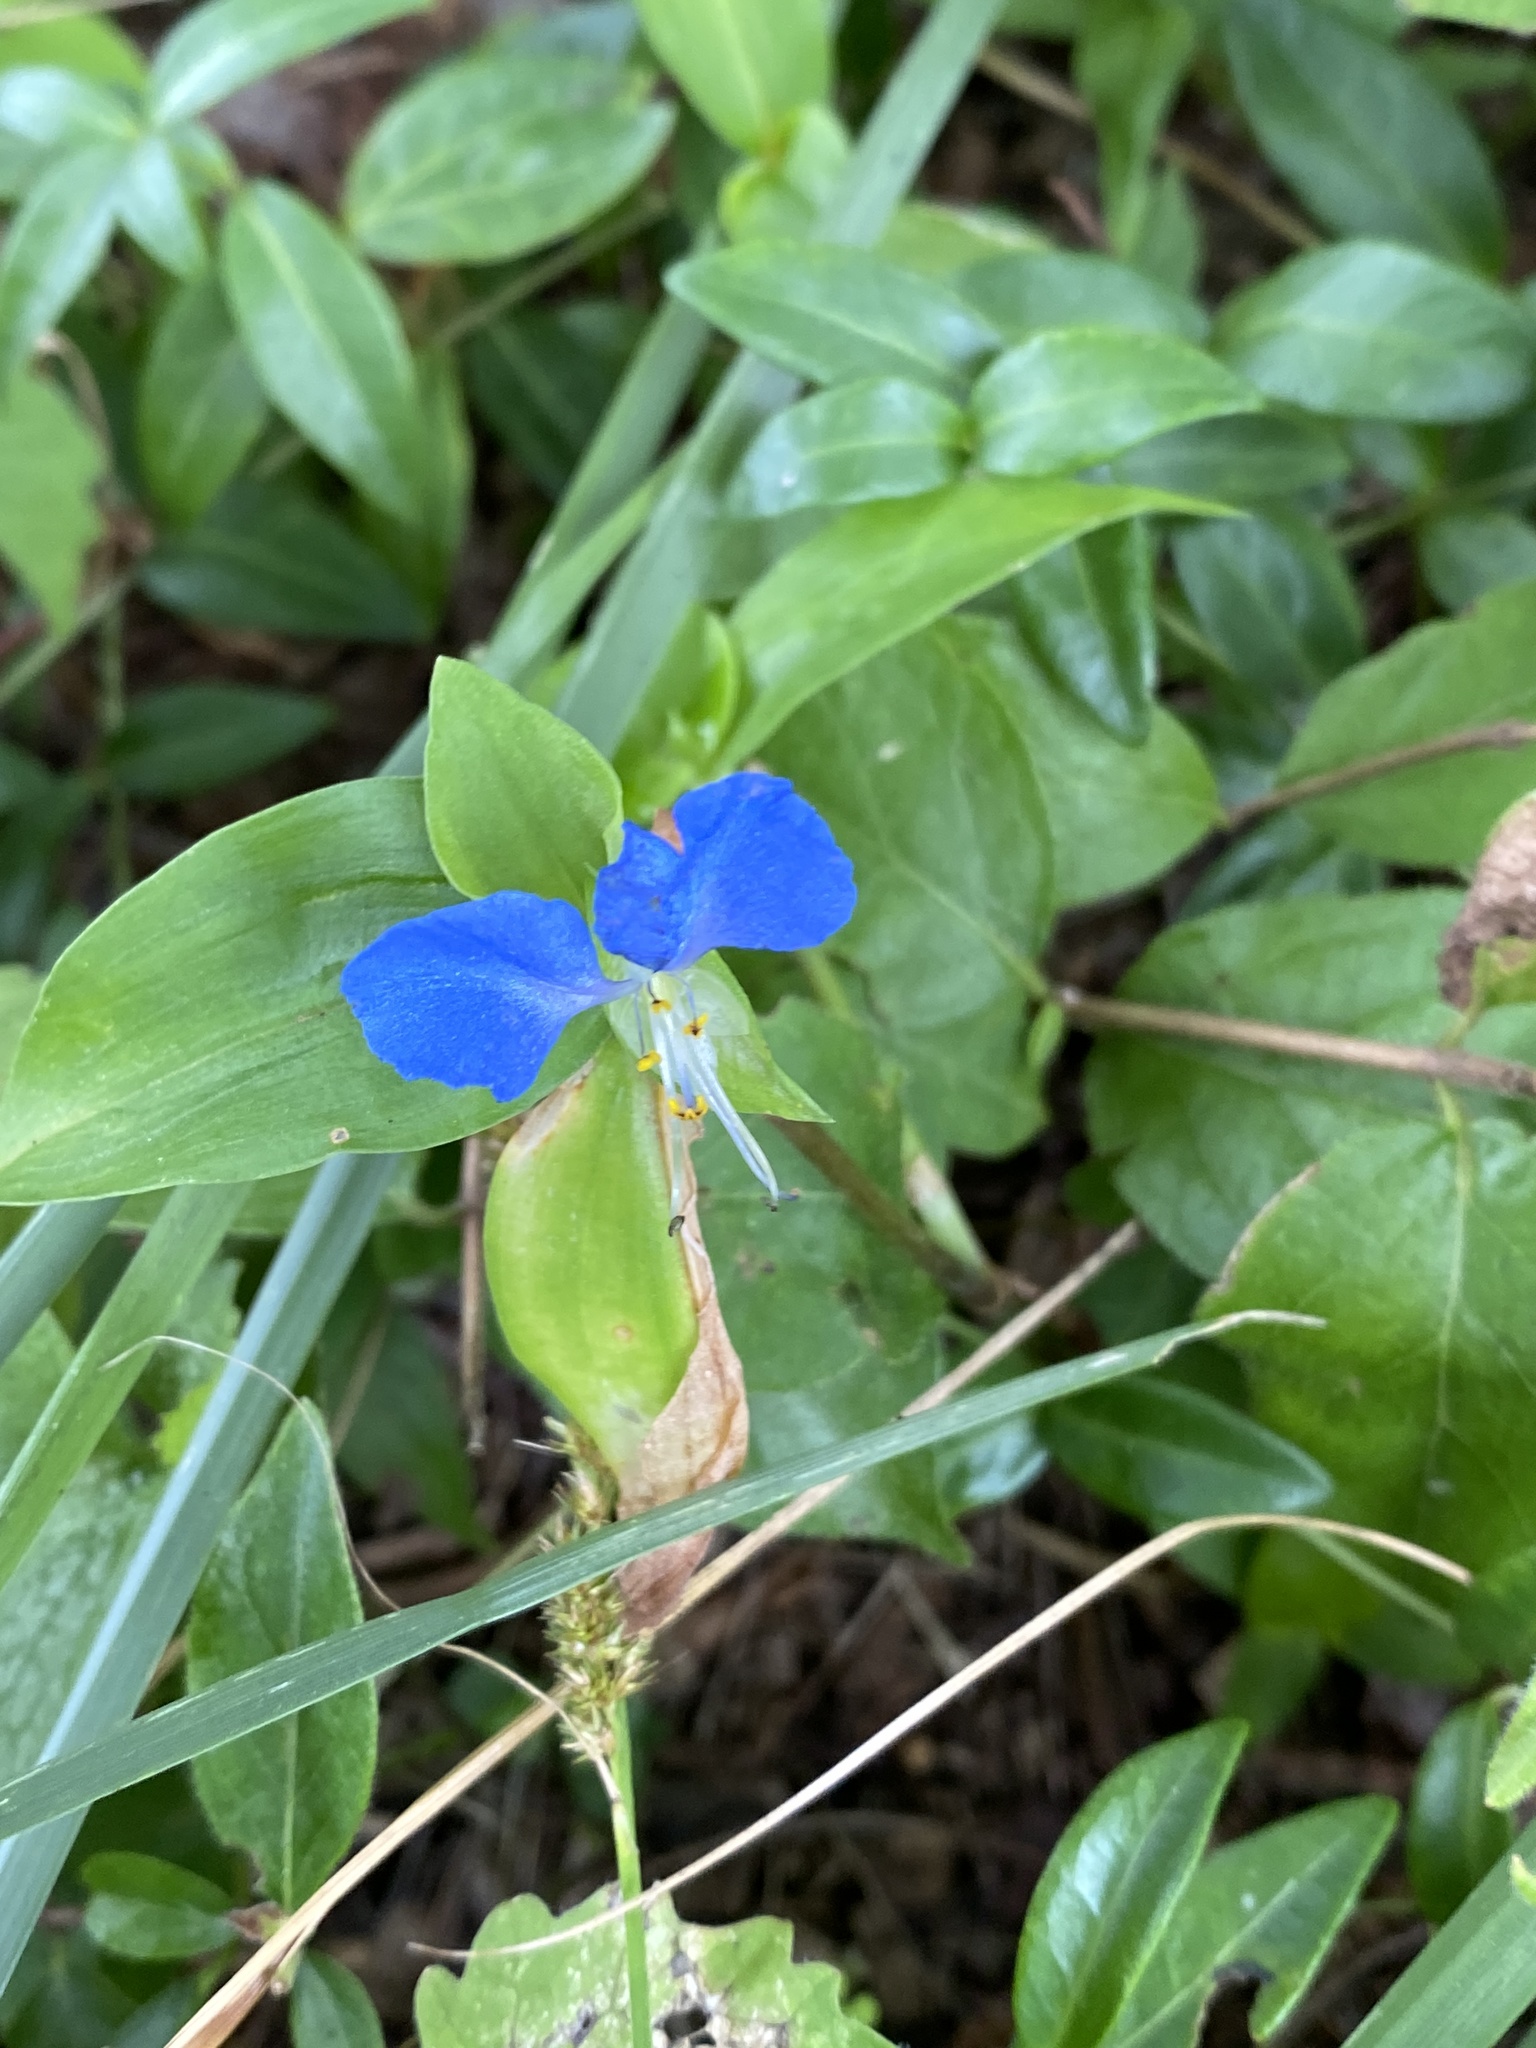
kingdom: Plantae
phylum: Tracheophyta
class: Liliopsida
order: Commelinales
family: Commelinaceae
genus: Commelina
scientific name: Commelina communis
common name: Asiatic dayflower
